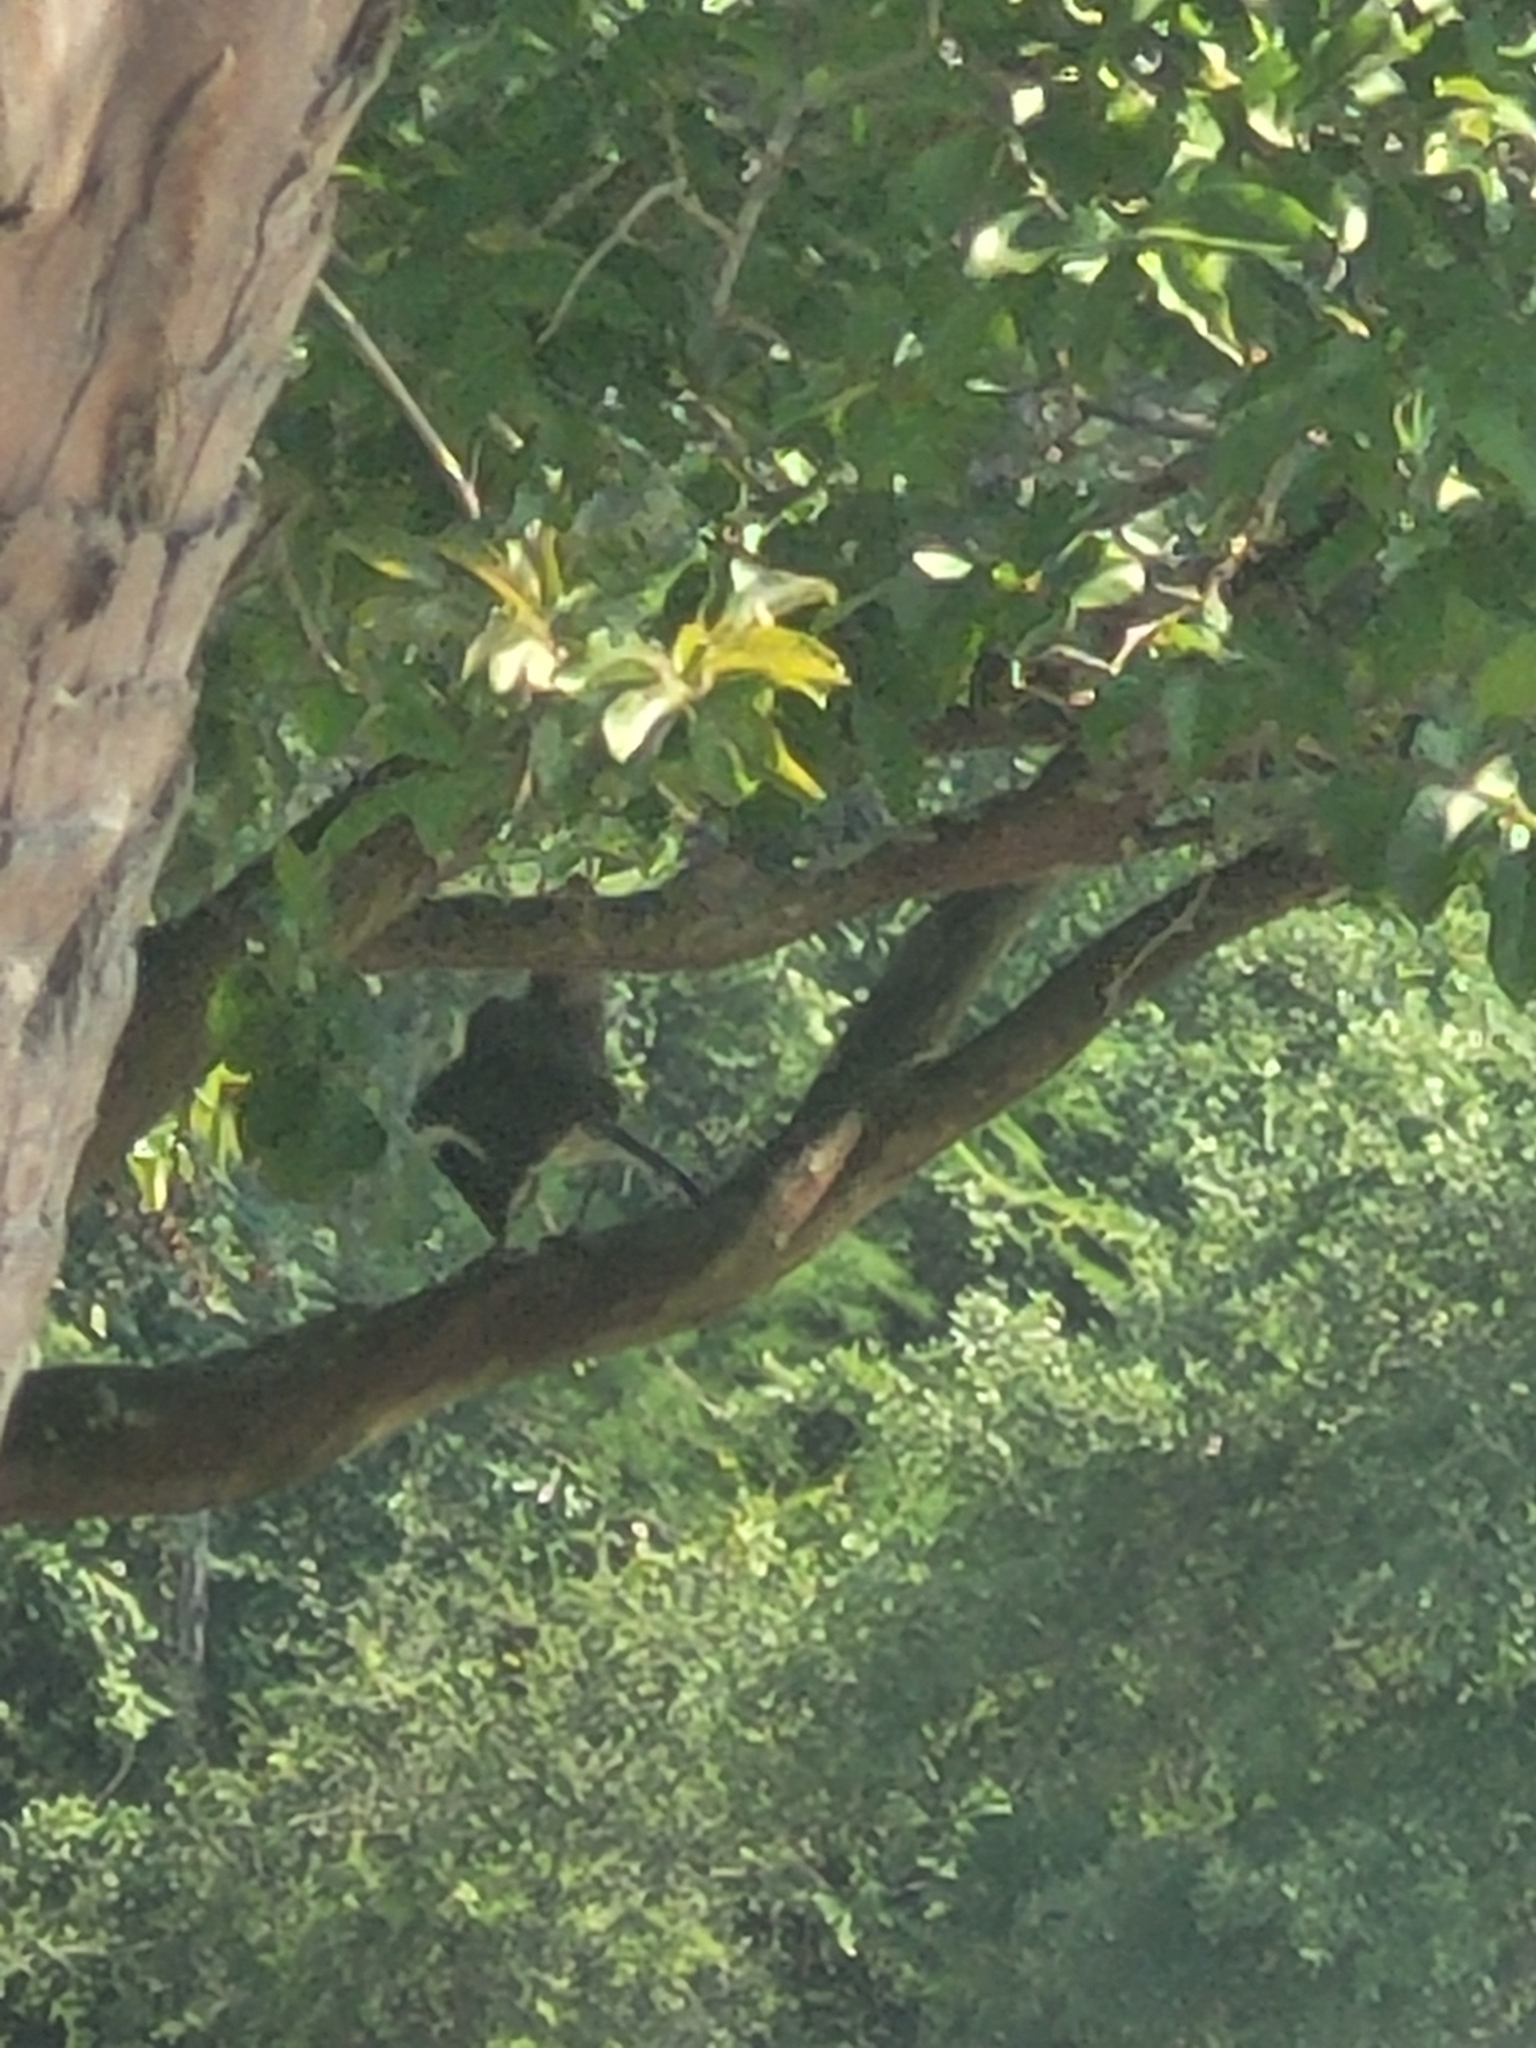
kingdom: Animalia
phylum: Chordata
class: Aves
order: Passeriformes
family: Mimidae
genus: Mimus
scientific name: Mimus polyglottos
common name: Northern mockingbird
